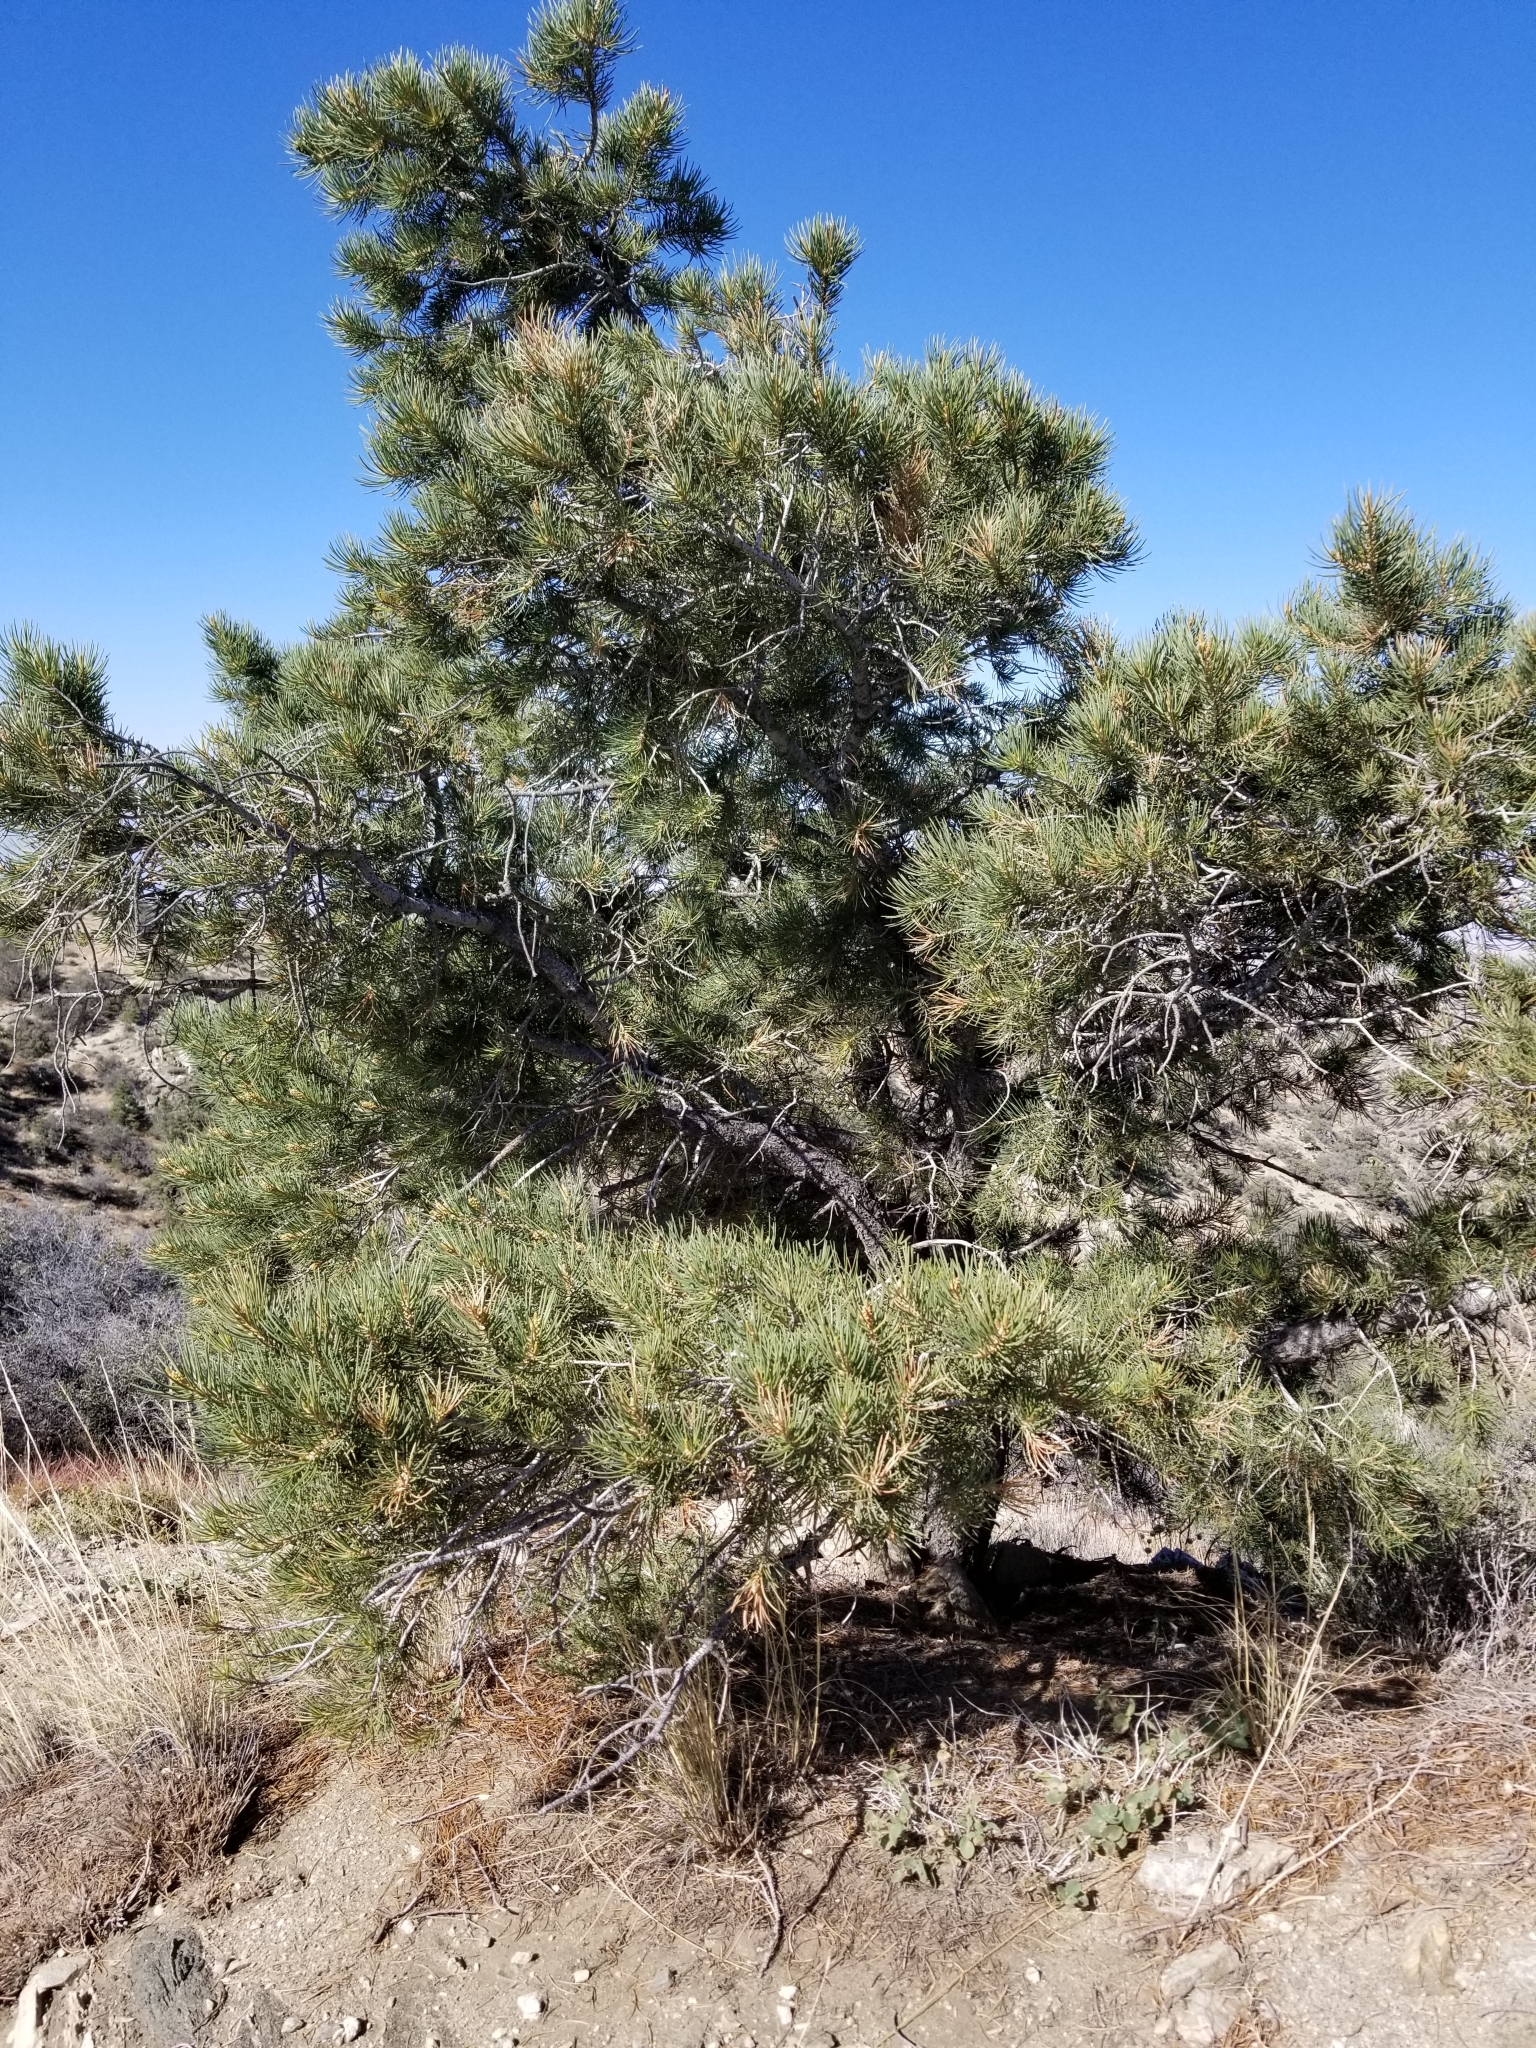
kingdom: Plantae
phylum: Tracheophyta
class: Pinopsida
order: Pinales
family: Pinaceae
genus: Pinus
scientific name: Pinus monophylla
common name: One-leaved nut pine
